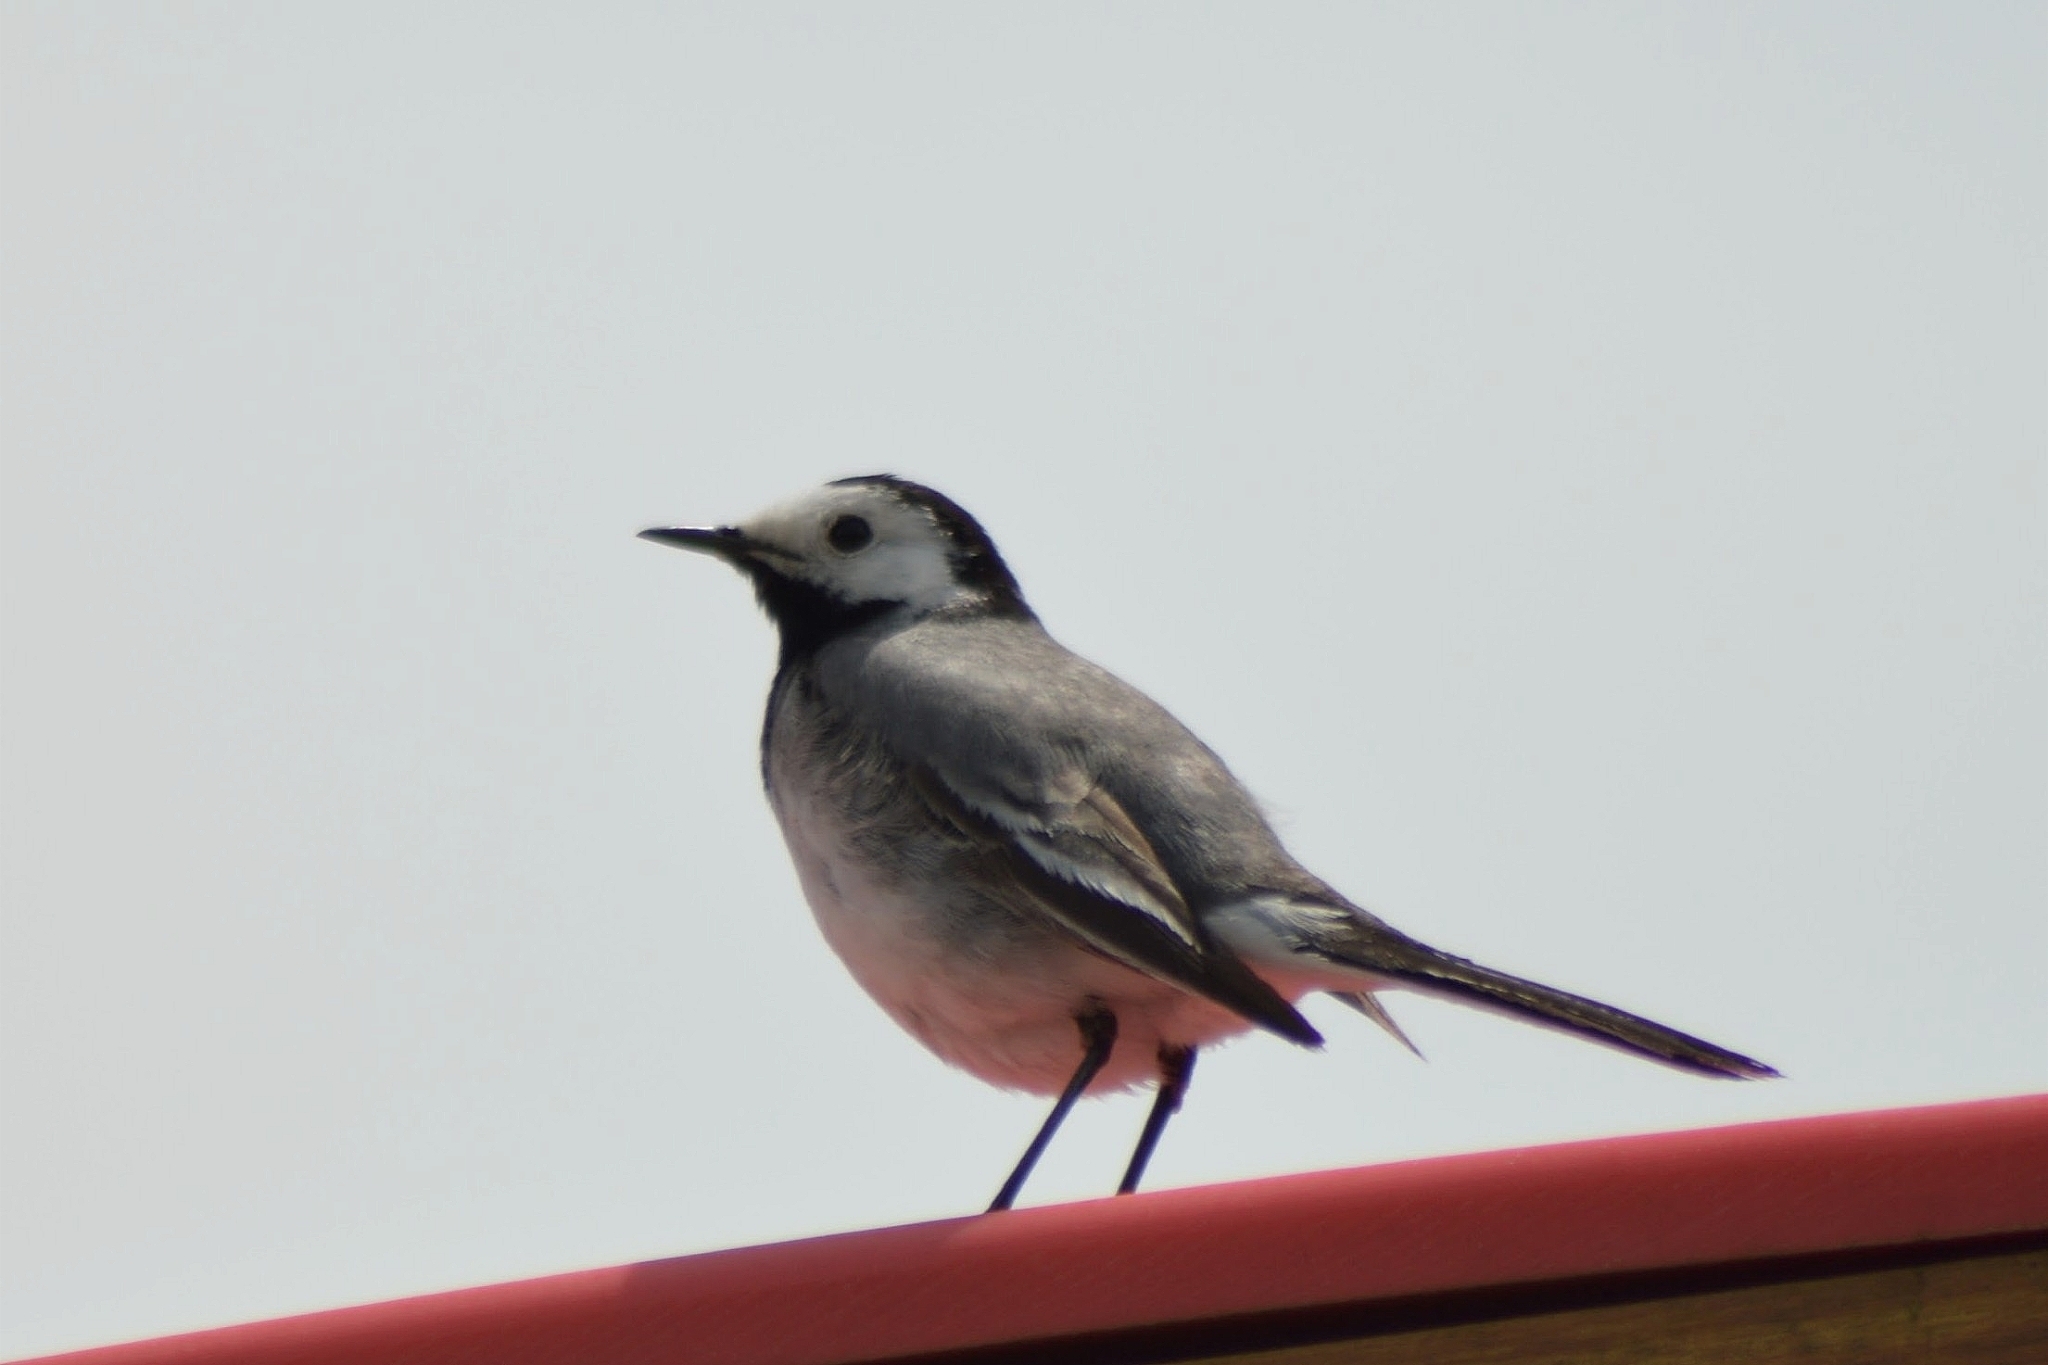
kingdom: Animalia
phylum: Chordata
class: Aves
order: Passeriformes
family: Motacillidae
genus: Motacilla
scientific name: Motacilla alba
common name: White wagtail
